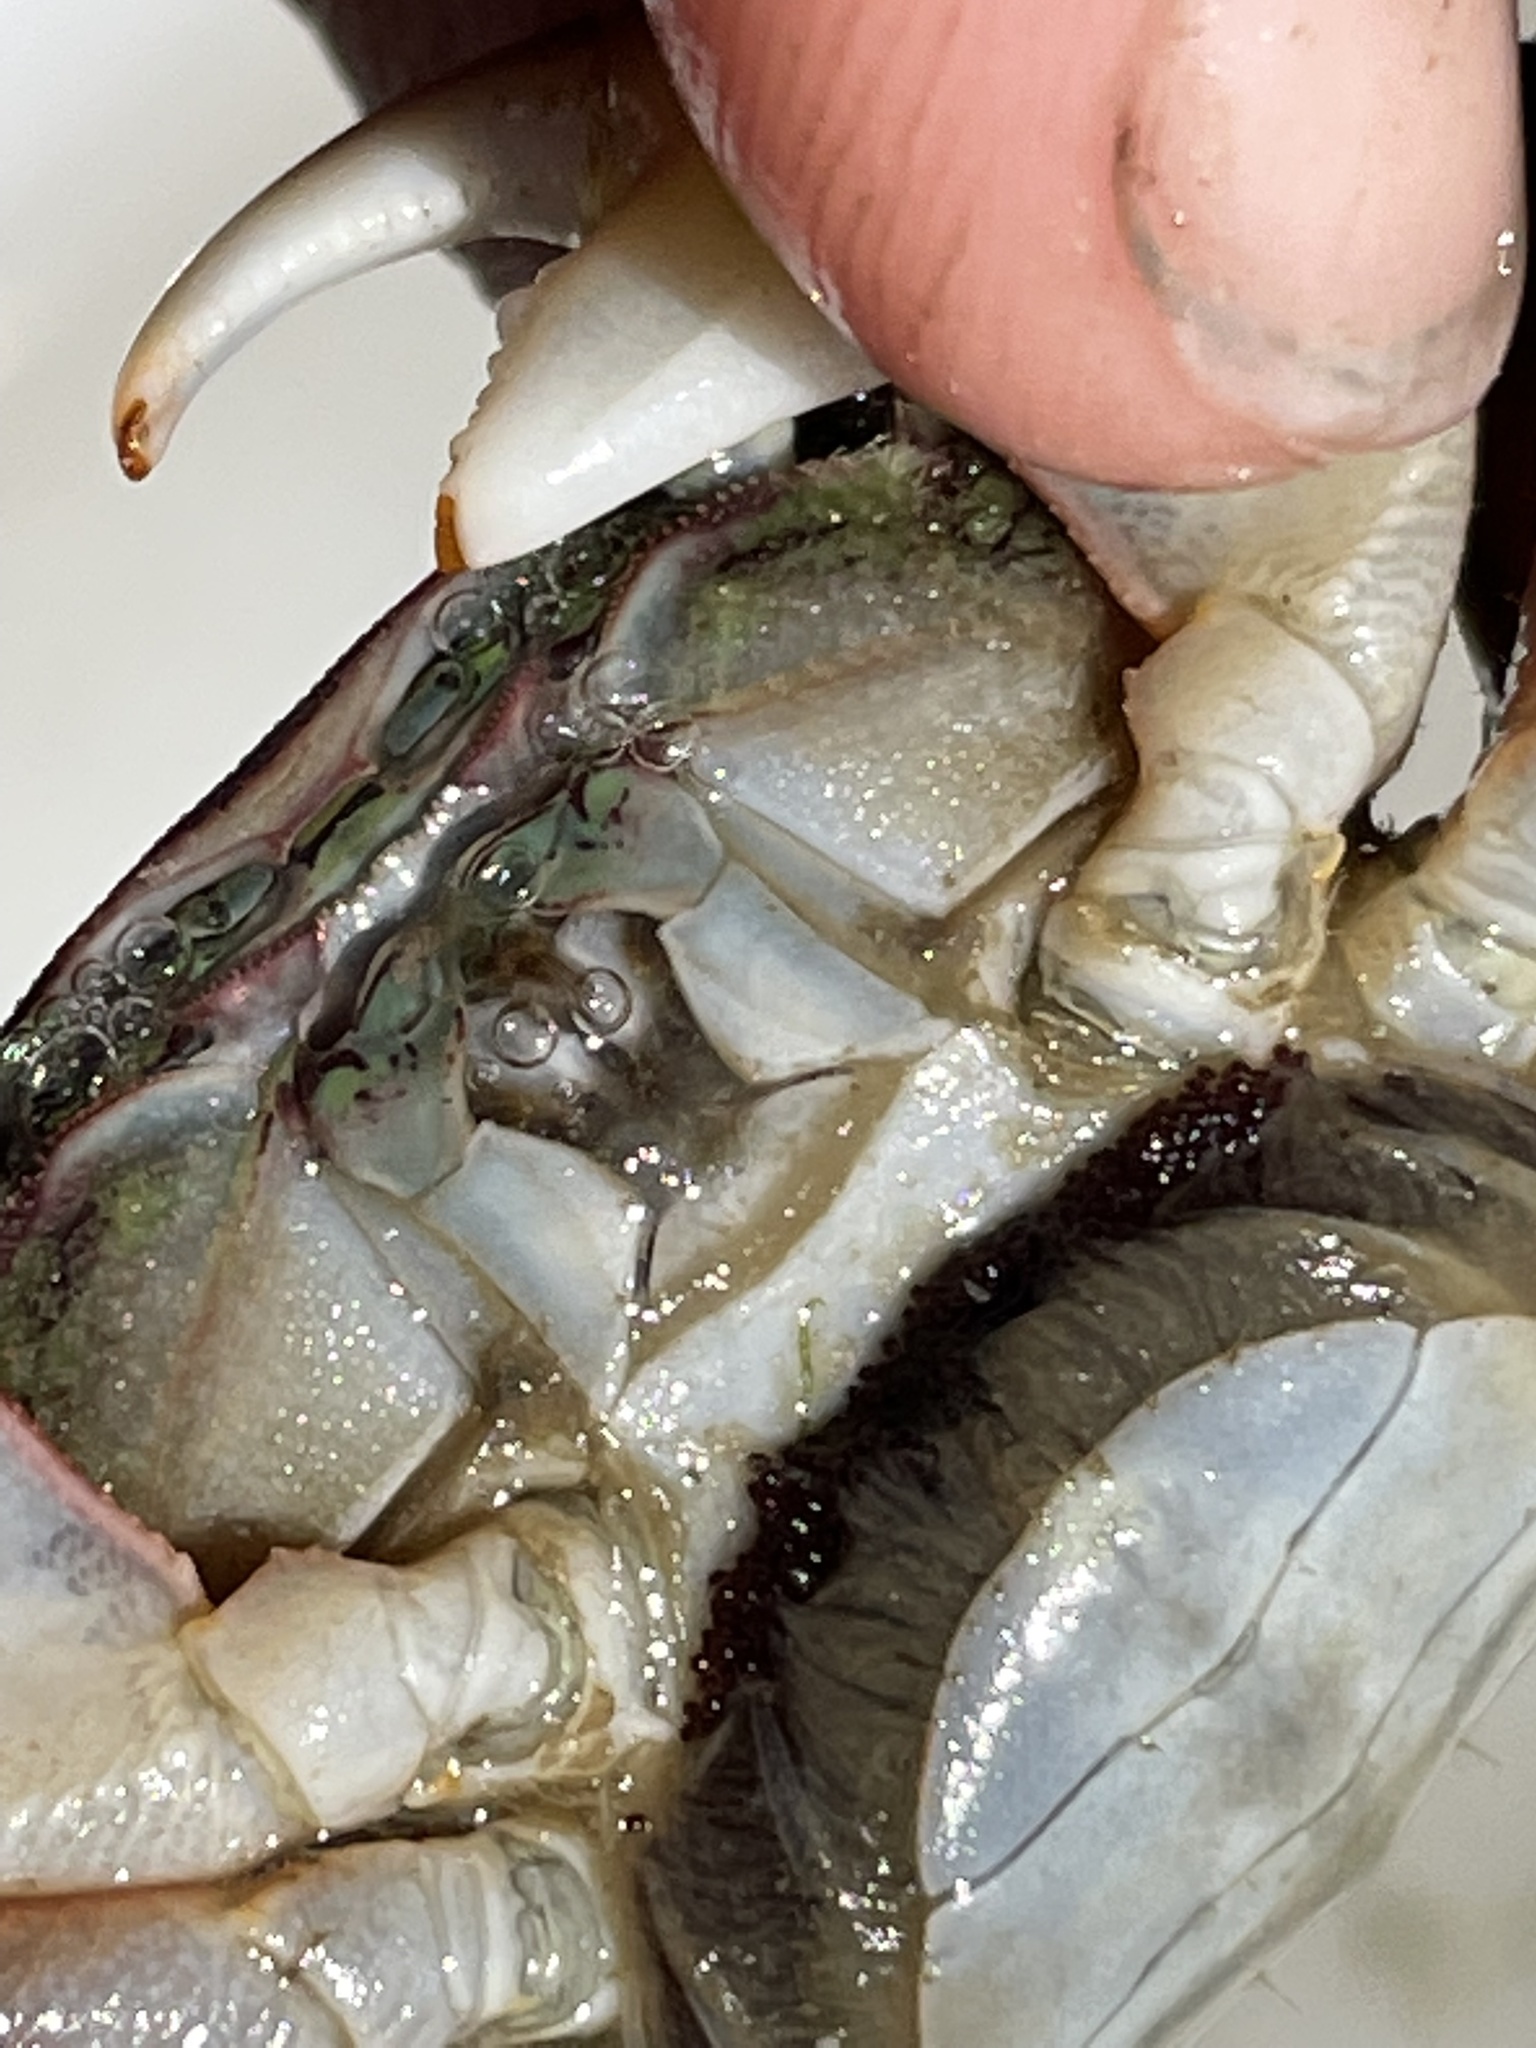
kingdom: Animalia
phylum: Arthropoda
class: Malacostraca
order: Decapoda
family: Grapsidae
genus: Pachygrapsus
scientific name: Pachygrapsus crassipes
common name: Striped shore crab
